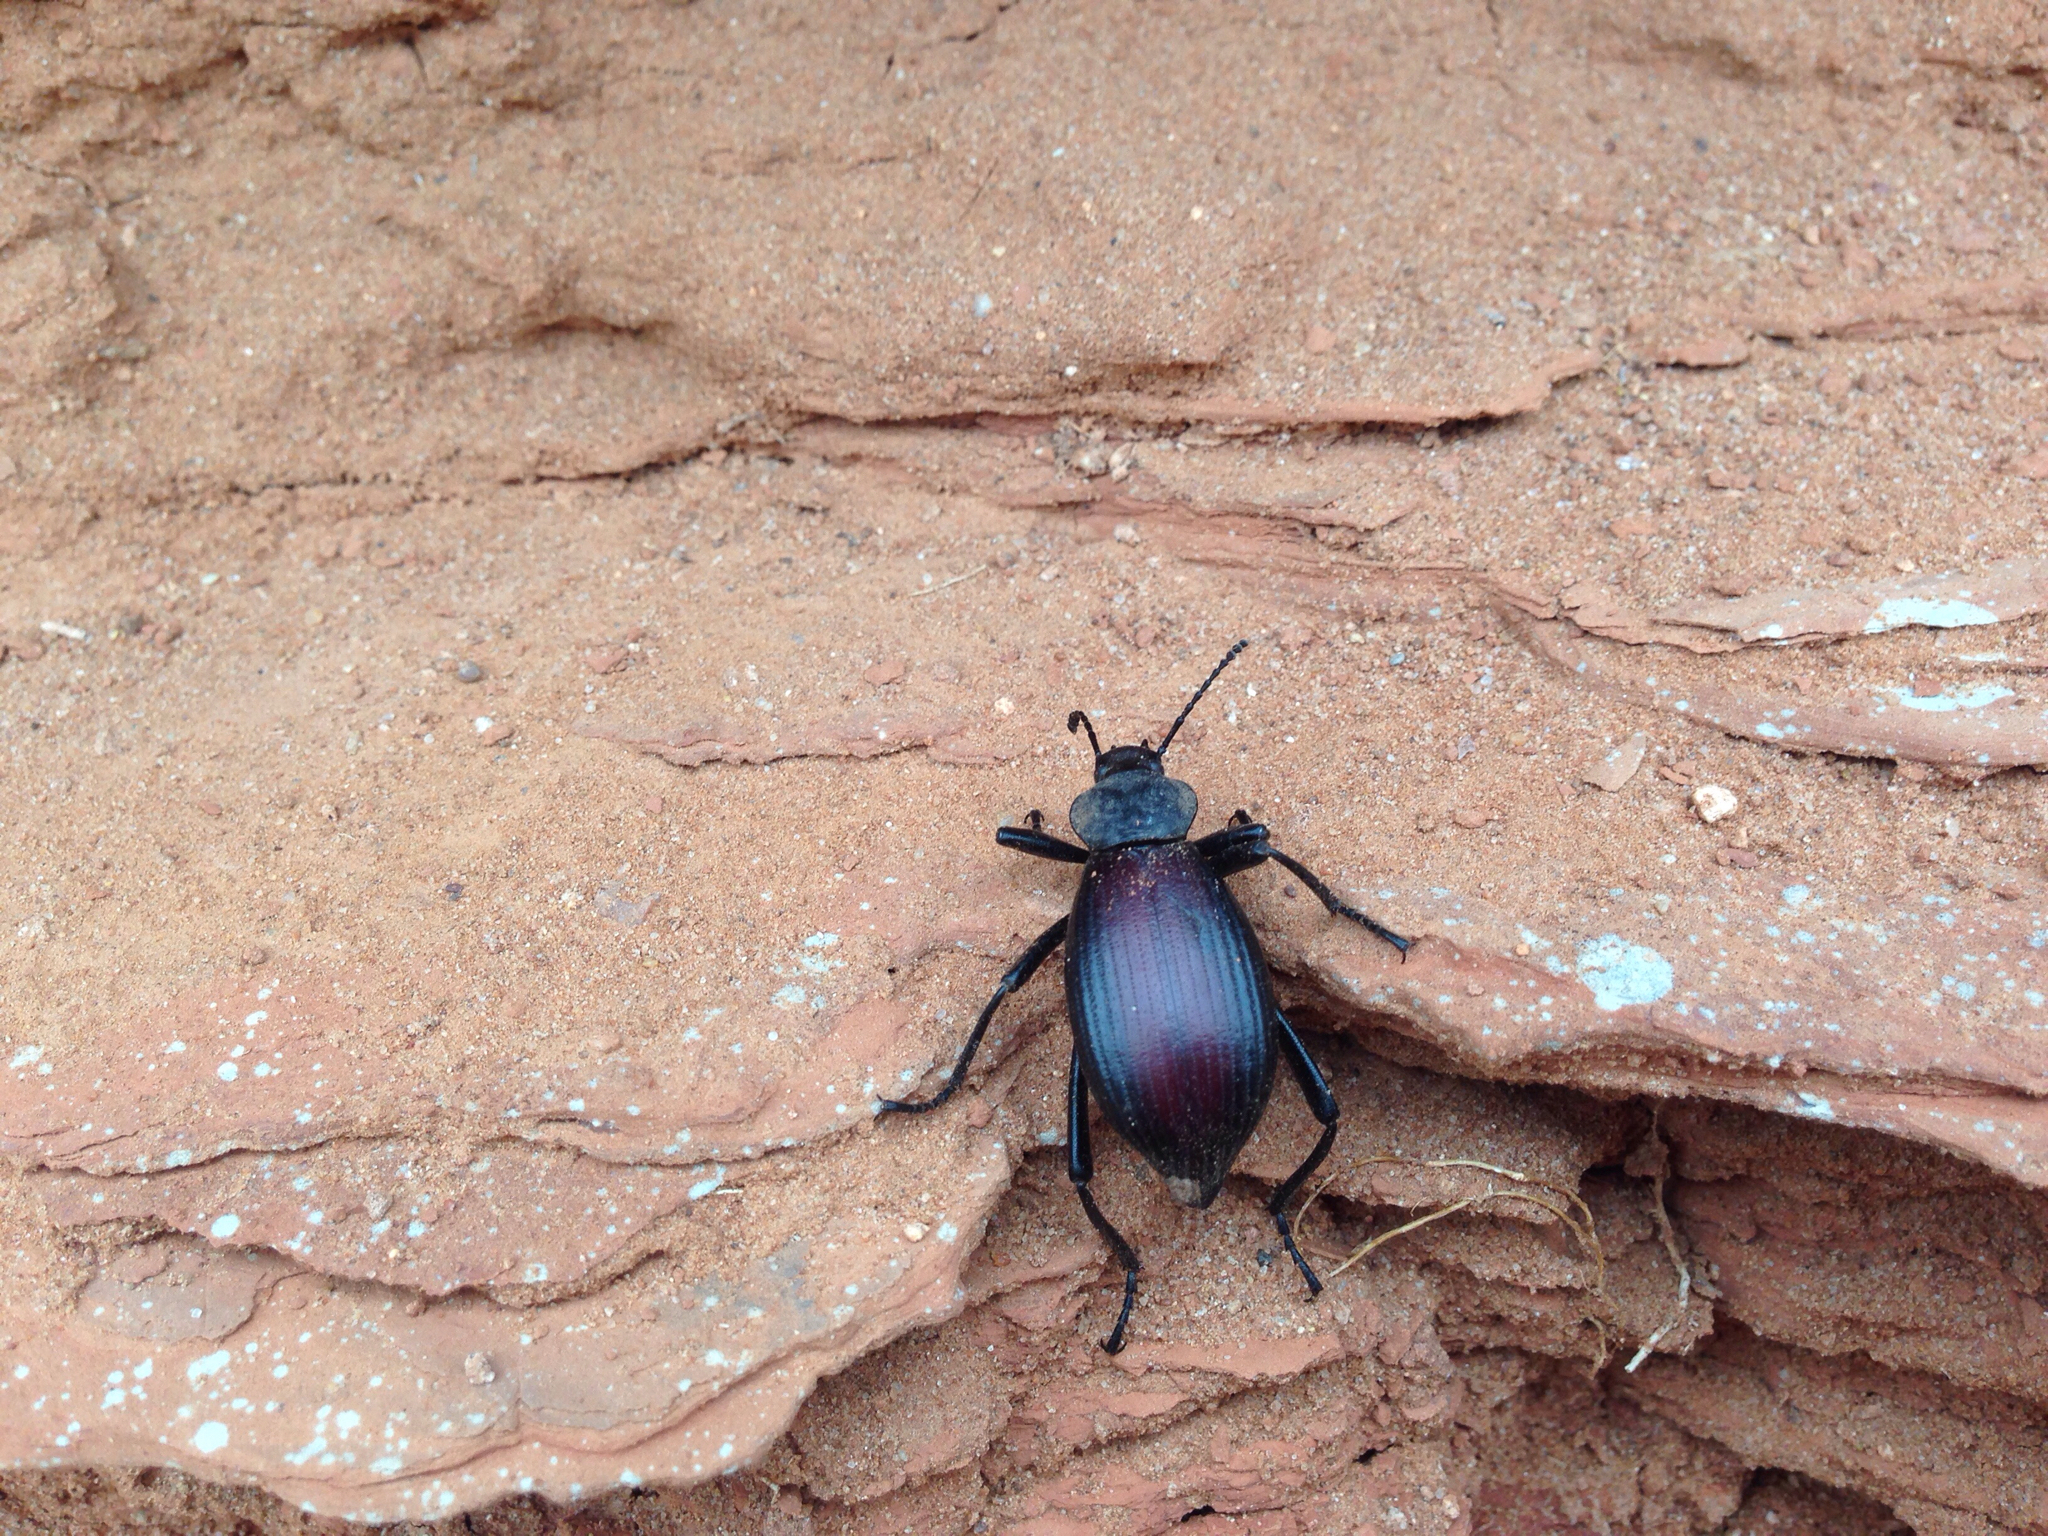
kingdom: Animalia
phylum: Arthropoda
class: Insecta
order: Coleoptera
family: Tenebrionidae
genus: Eleodes
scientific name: Eleodes hispilabris
